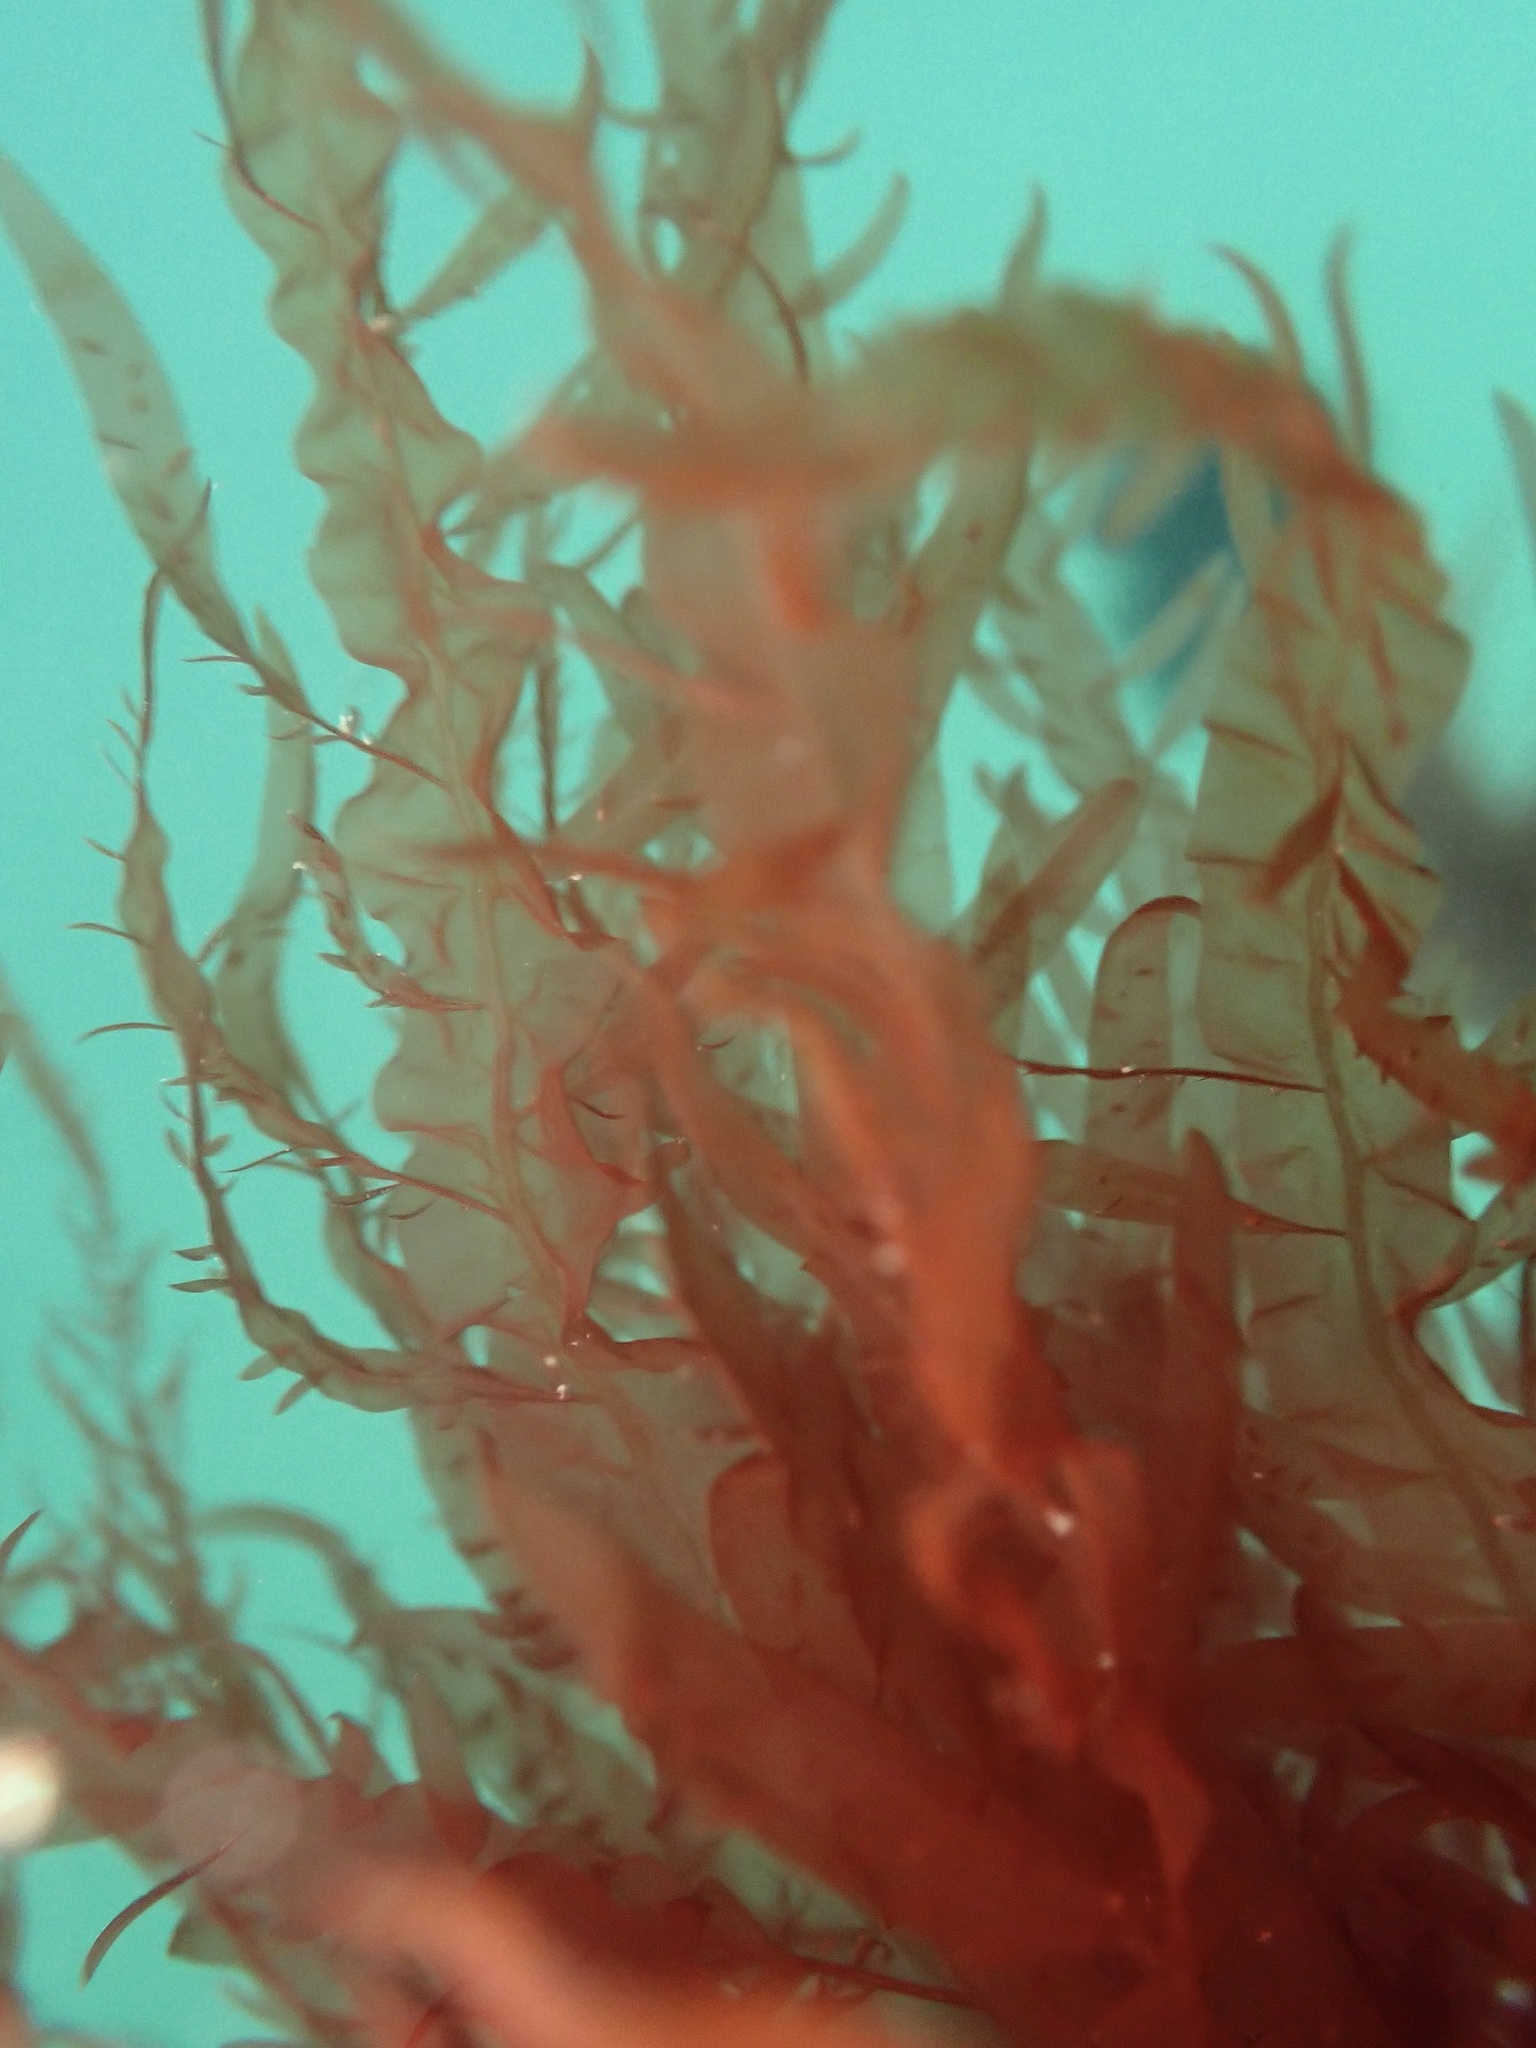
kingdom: Plantae
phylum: Rhodophyta
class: Florideophyceae
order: Ceramiales
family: Delesseriaceae
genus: Cumathamnion
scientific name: Cumathamnion decipiens
